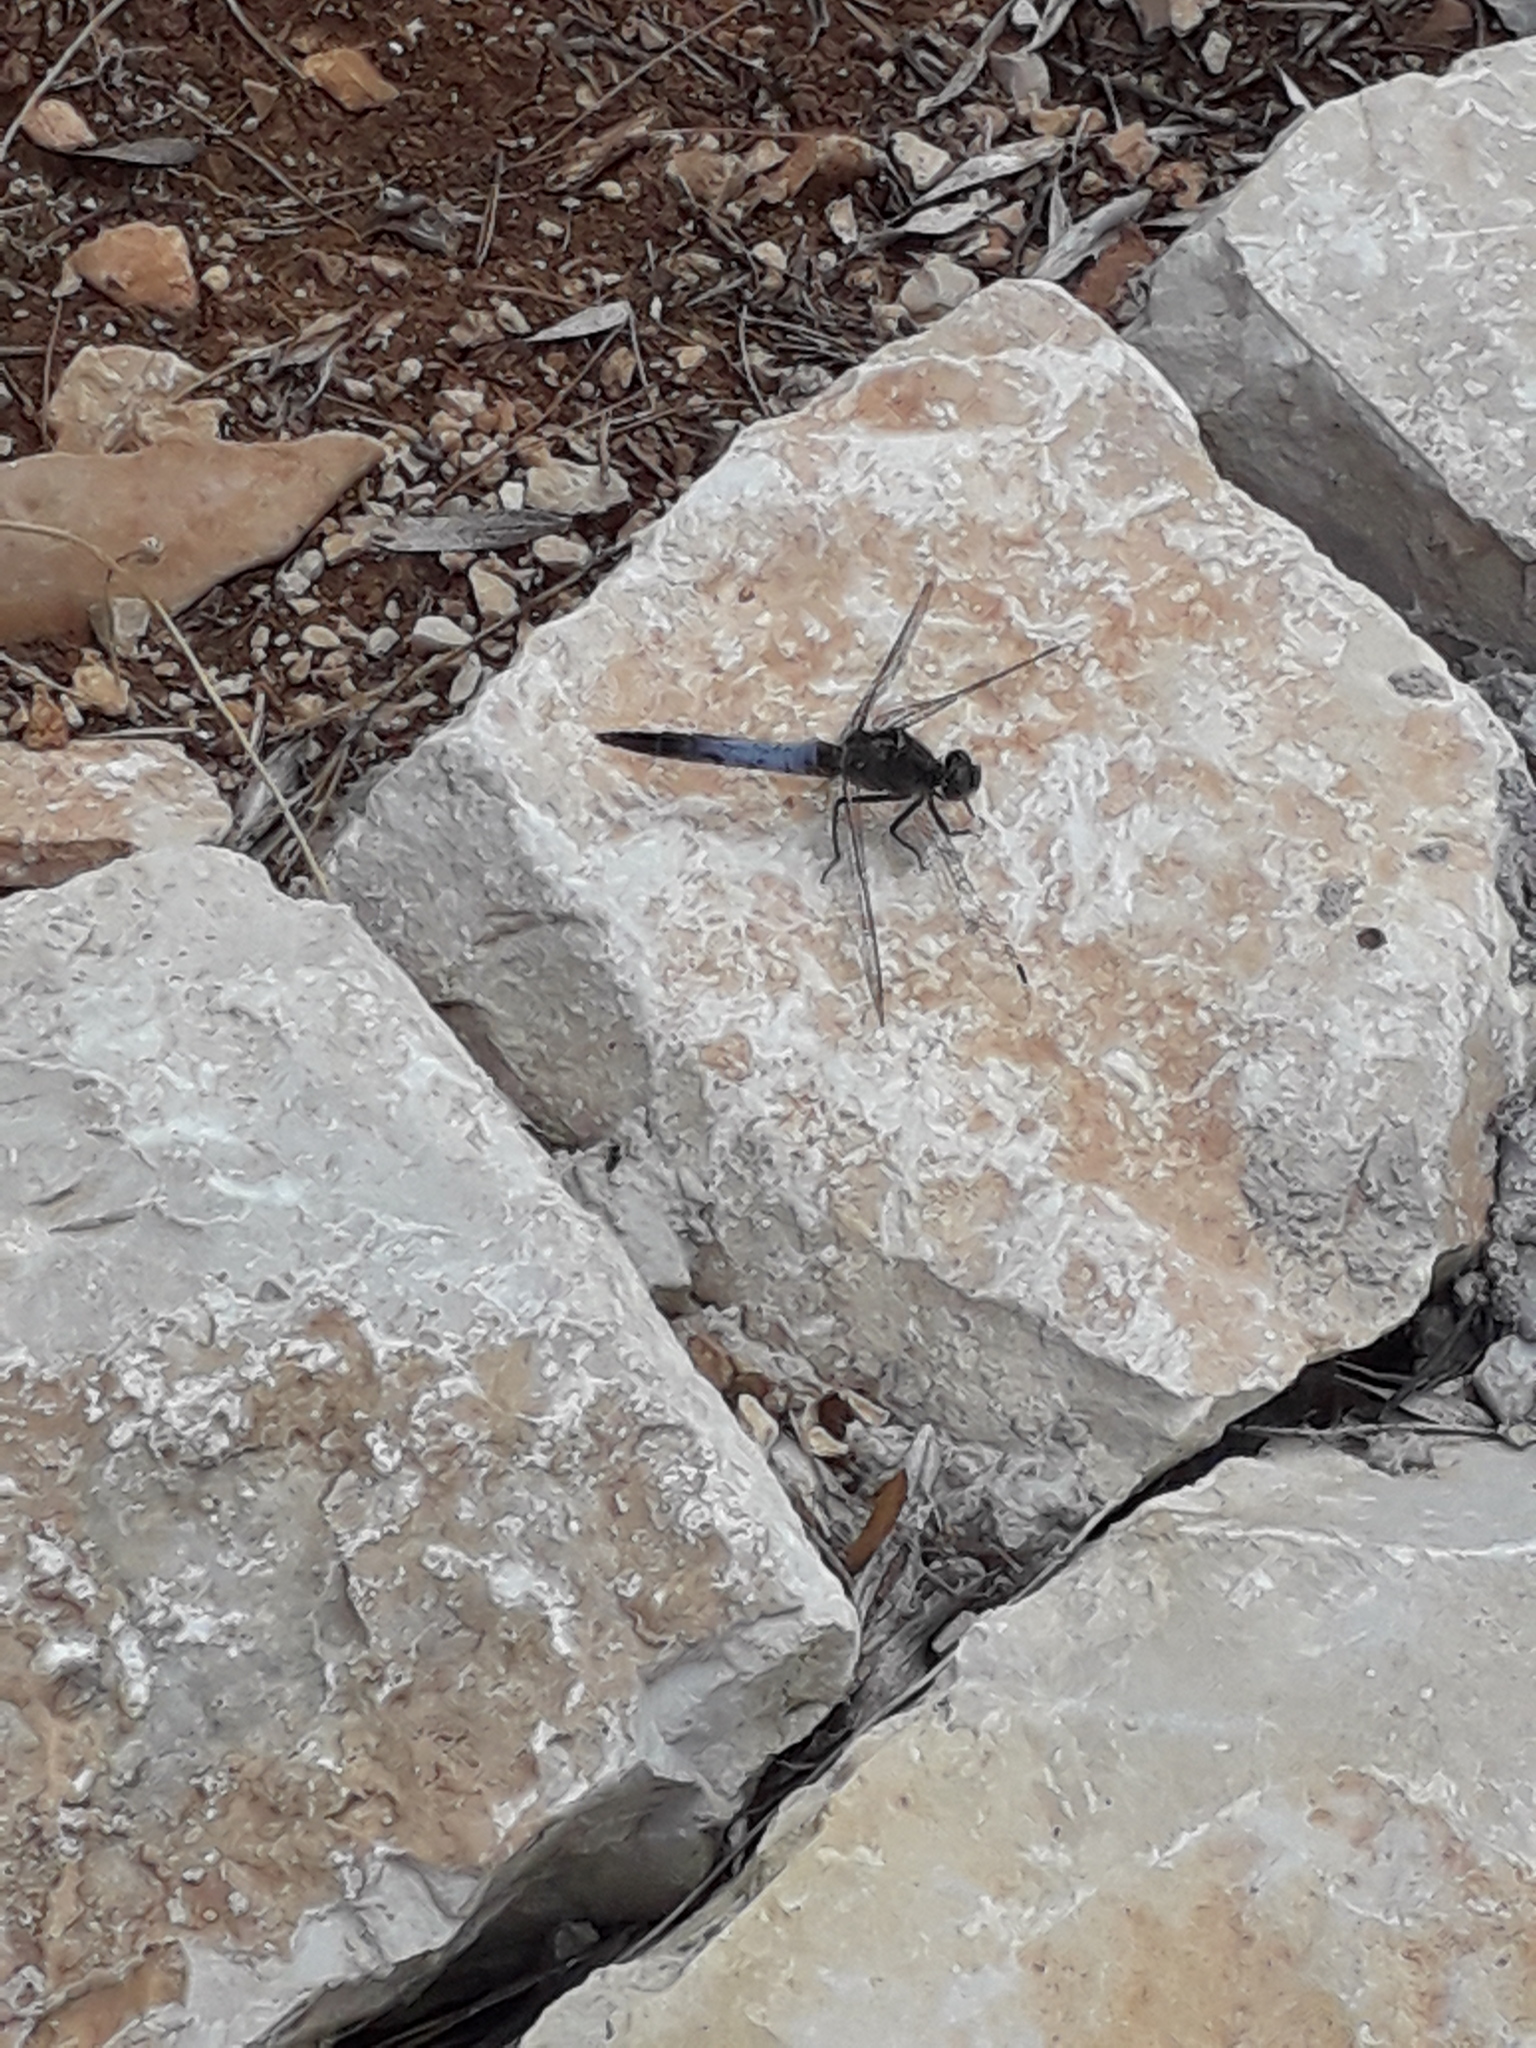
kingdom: Animalia
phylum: Arthropoda
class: Insecta
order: Odonata
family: Libellulidae
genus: Orthetrum
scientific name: Orthetrum cancellatum
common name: Black-tailed skimmer
